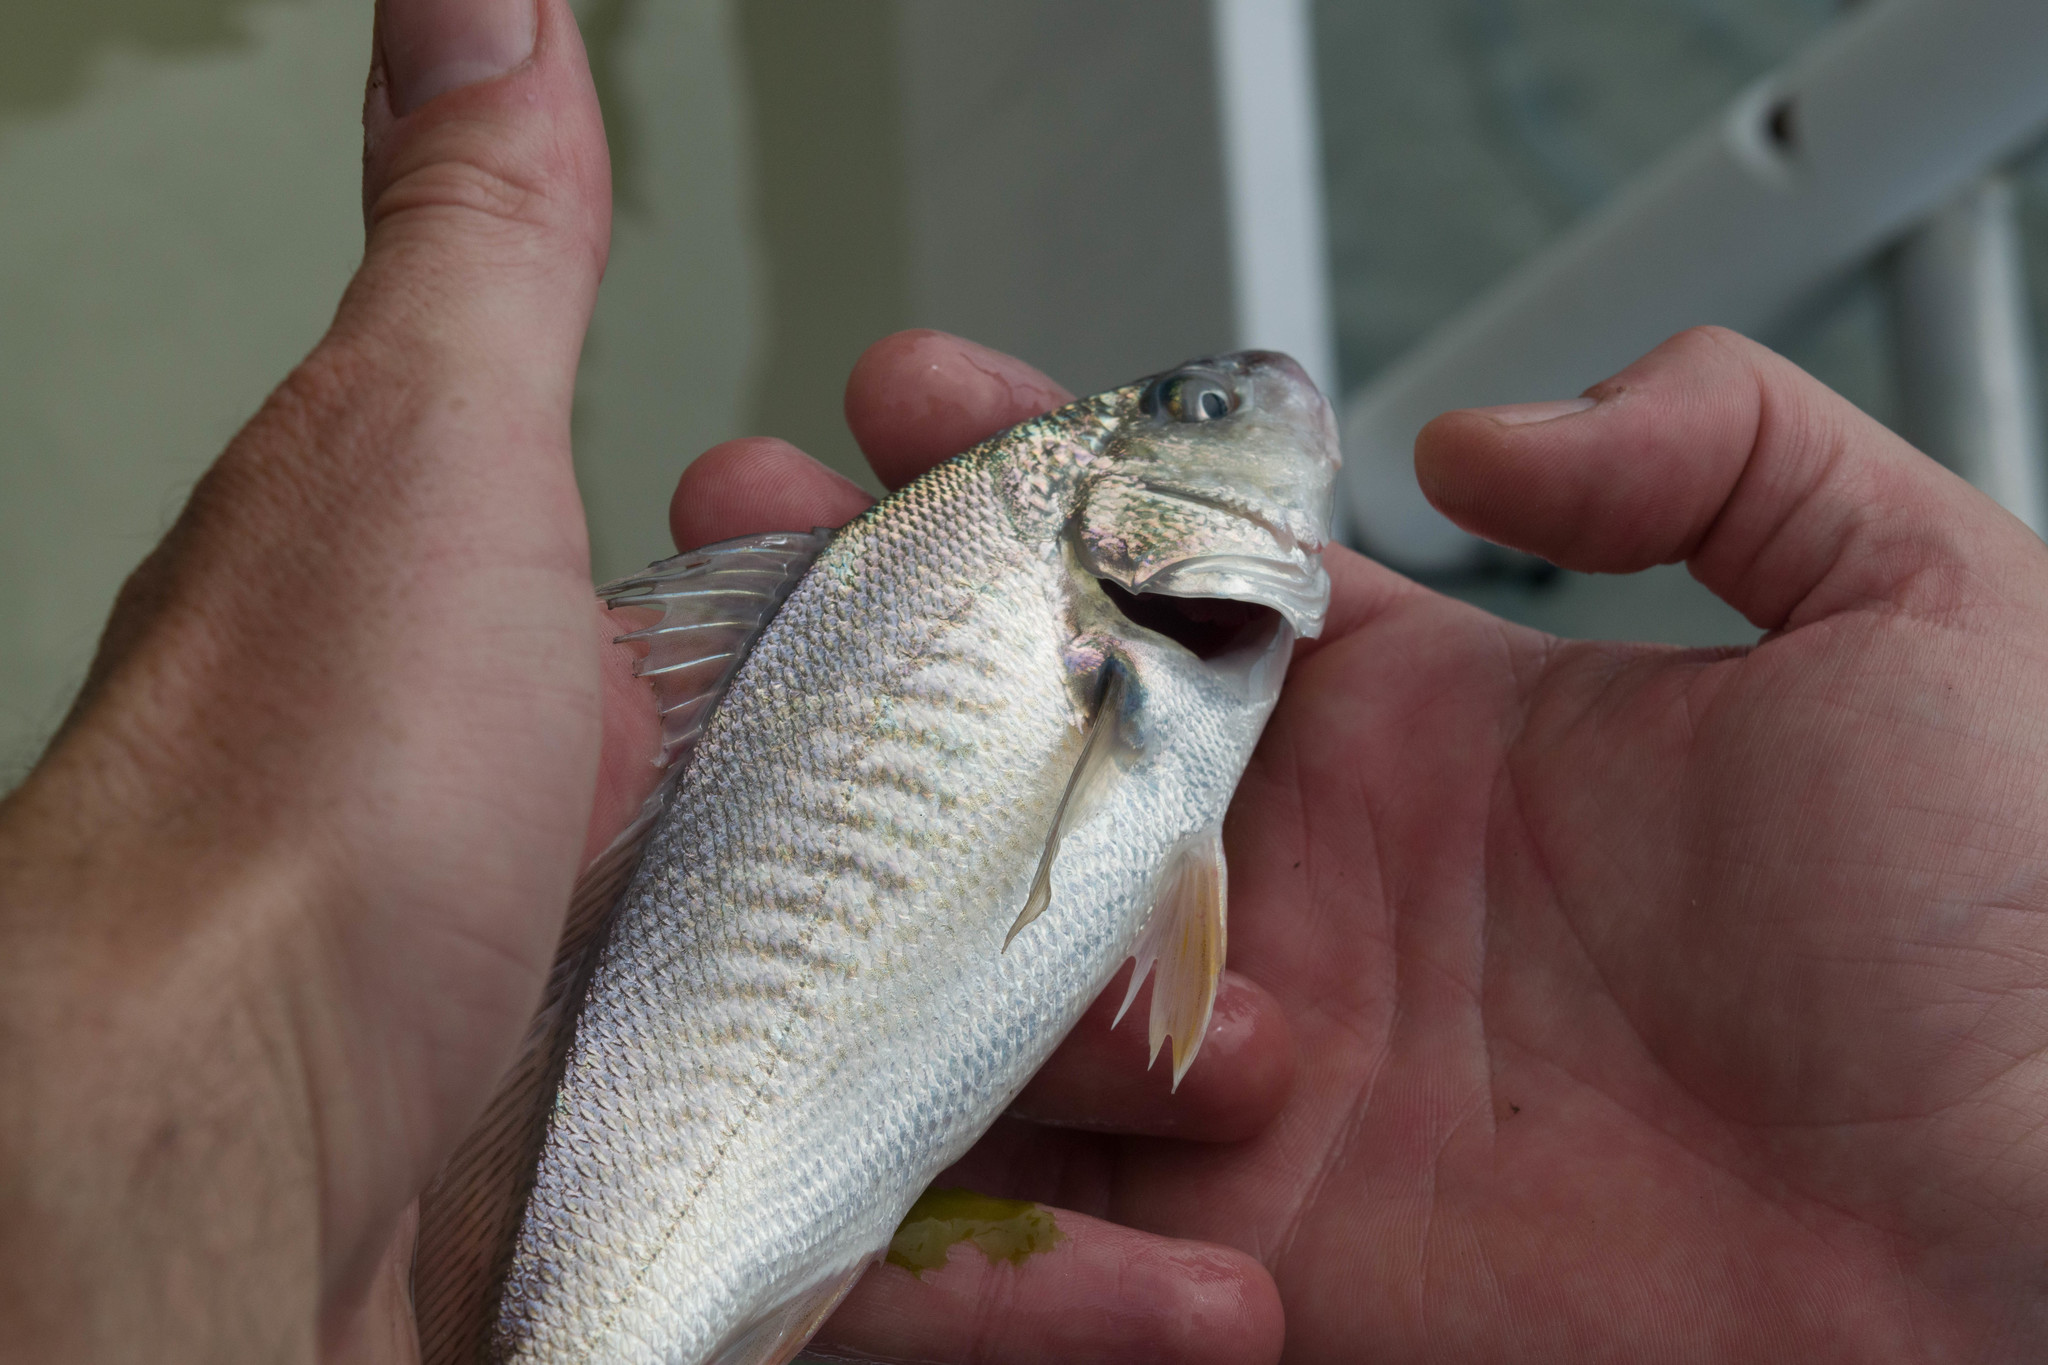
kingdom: Animalia
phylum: Chordata
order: Perciformes
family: Sciaenidae
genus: Micropogonias
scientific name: Micropogonias undulatus
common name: Atlantic croaker
